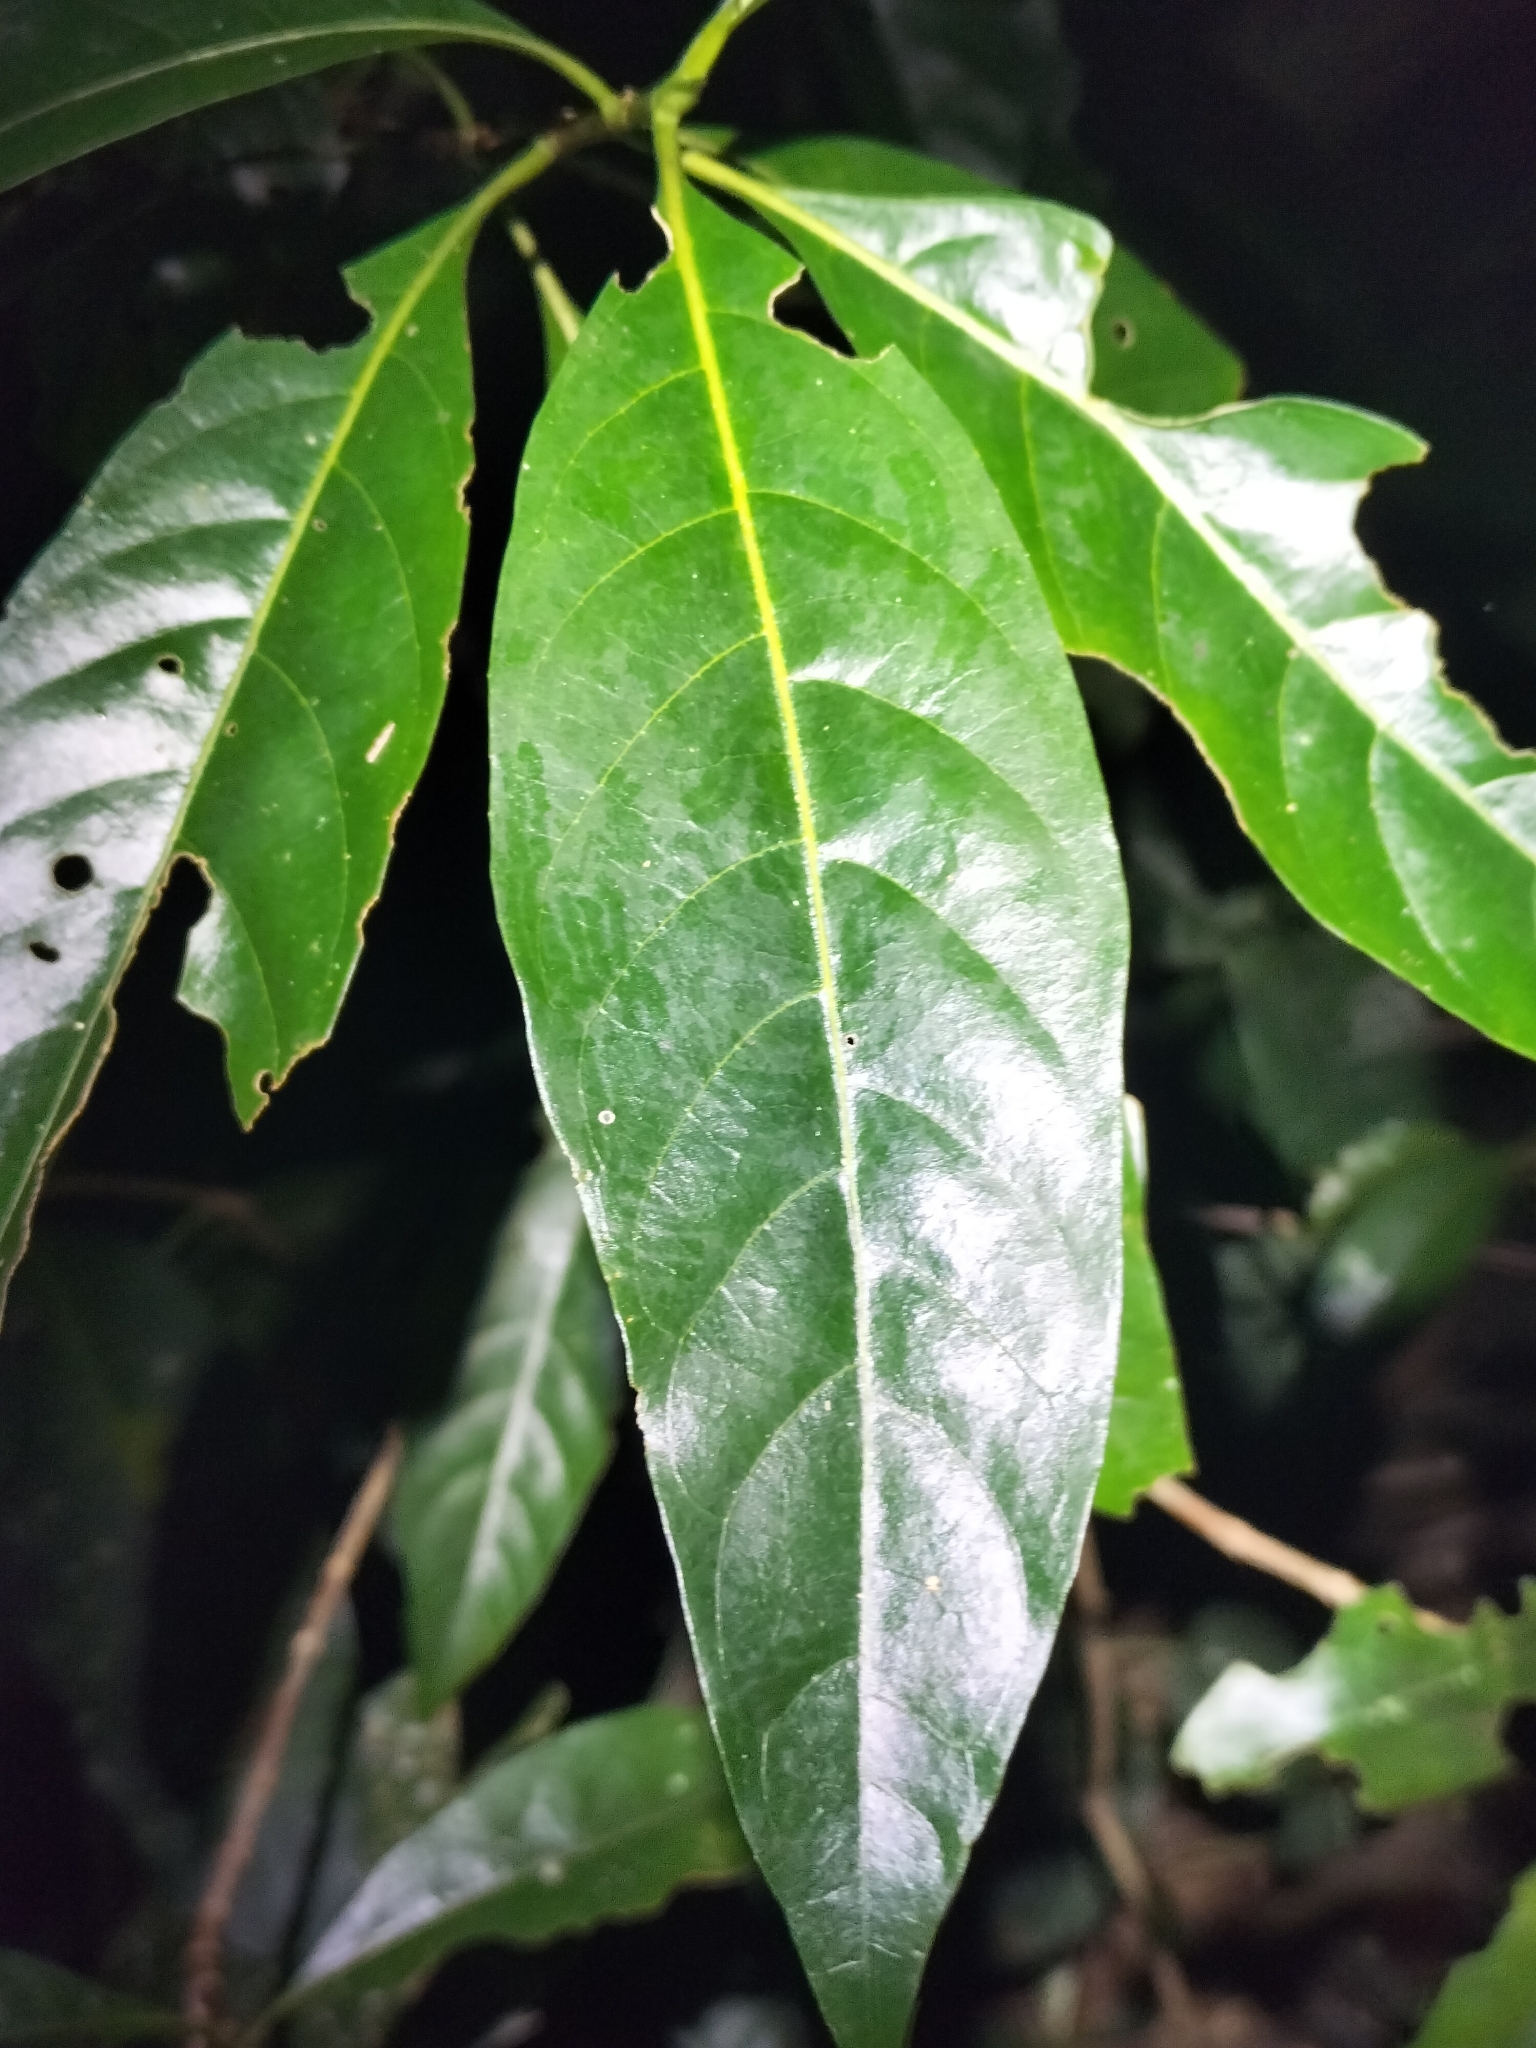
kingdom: Plantae
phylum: Tracheophyta
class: Magnoliopsida
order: Gentianales
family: Rubiaceae
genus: Pavetta
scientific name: Pavetta australiensis
